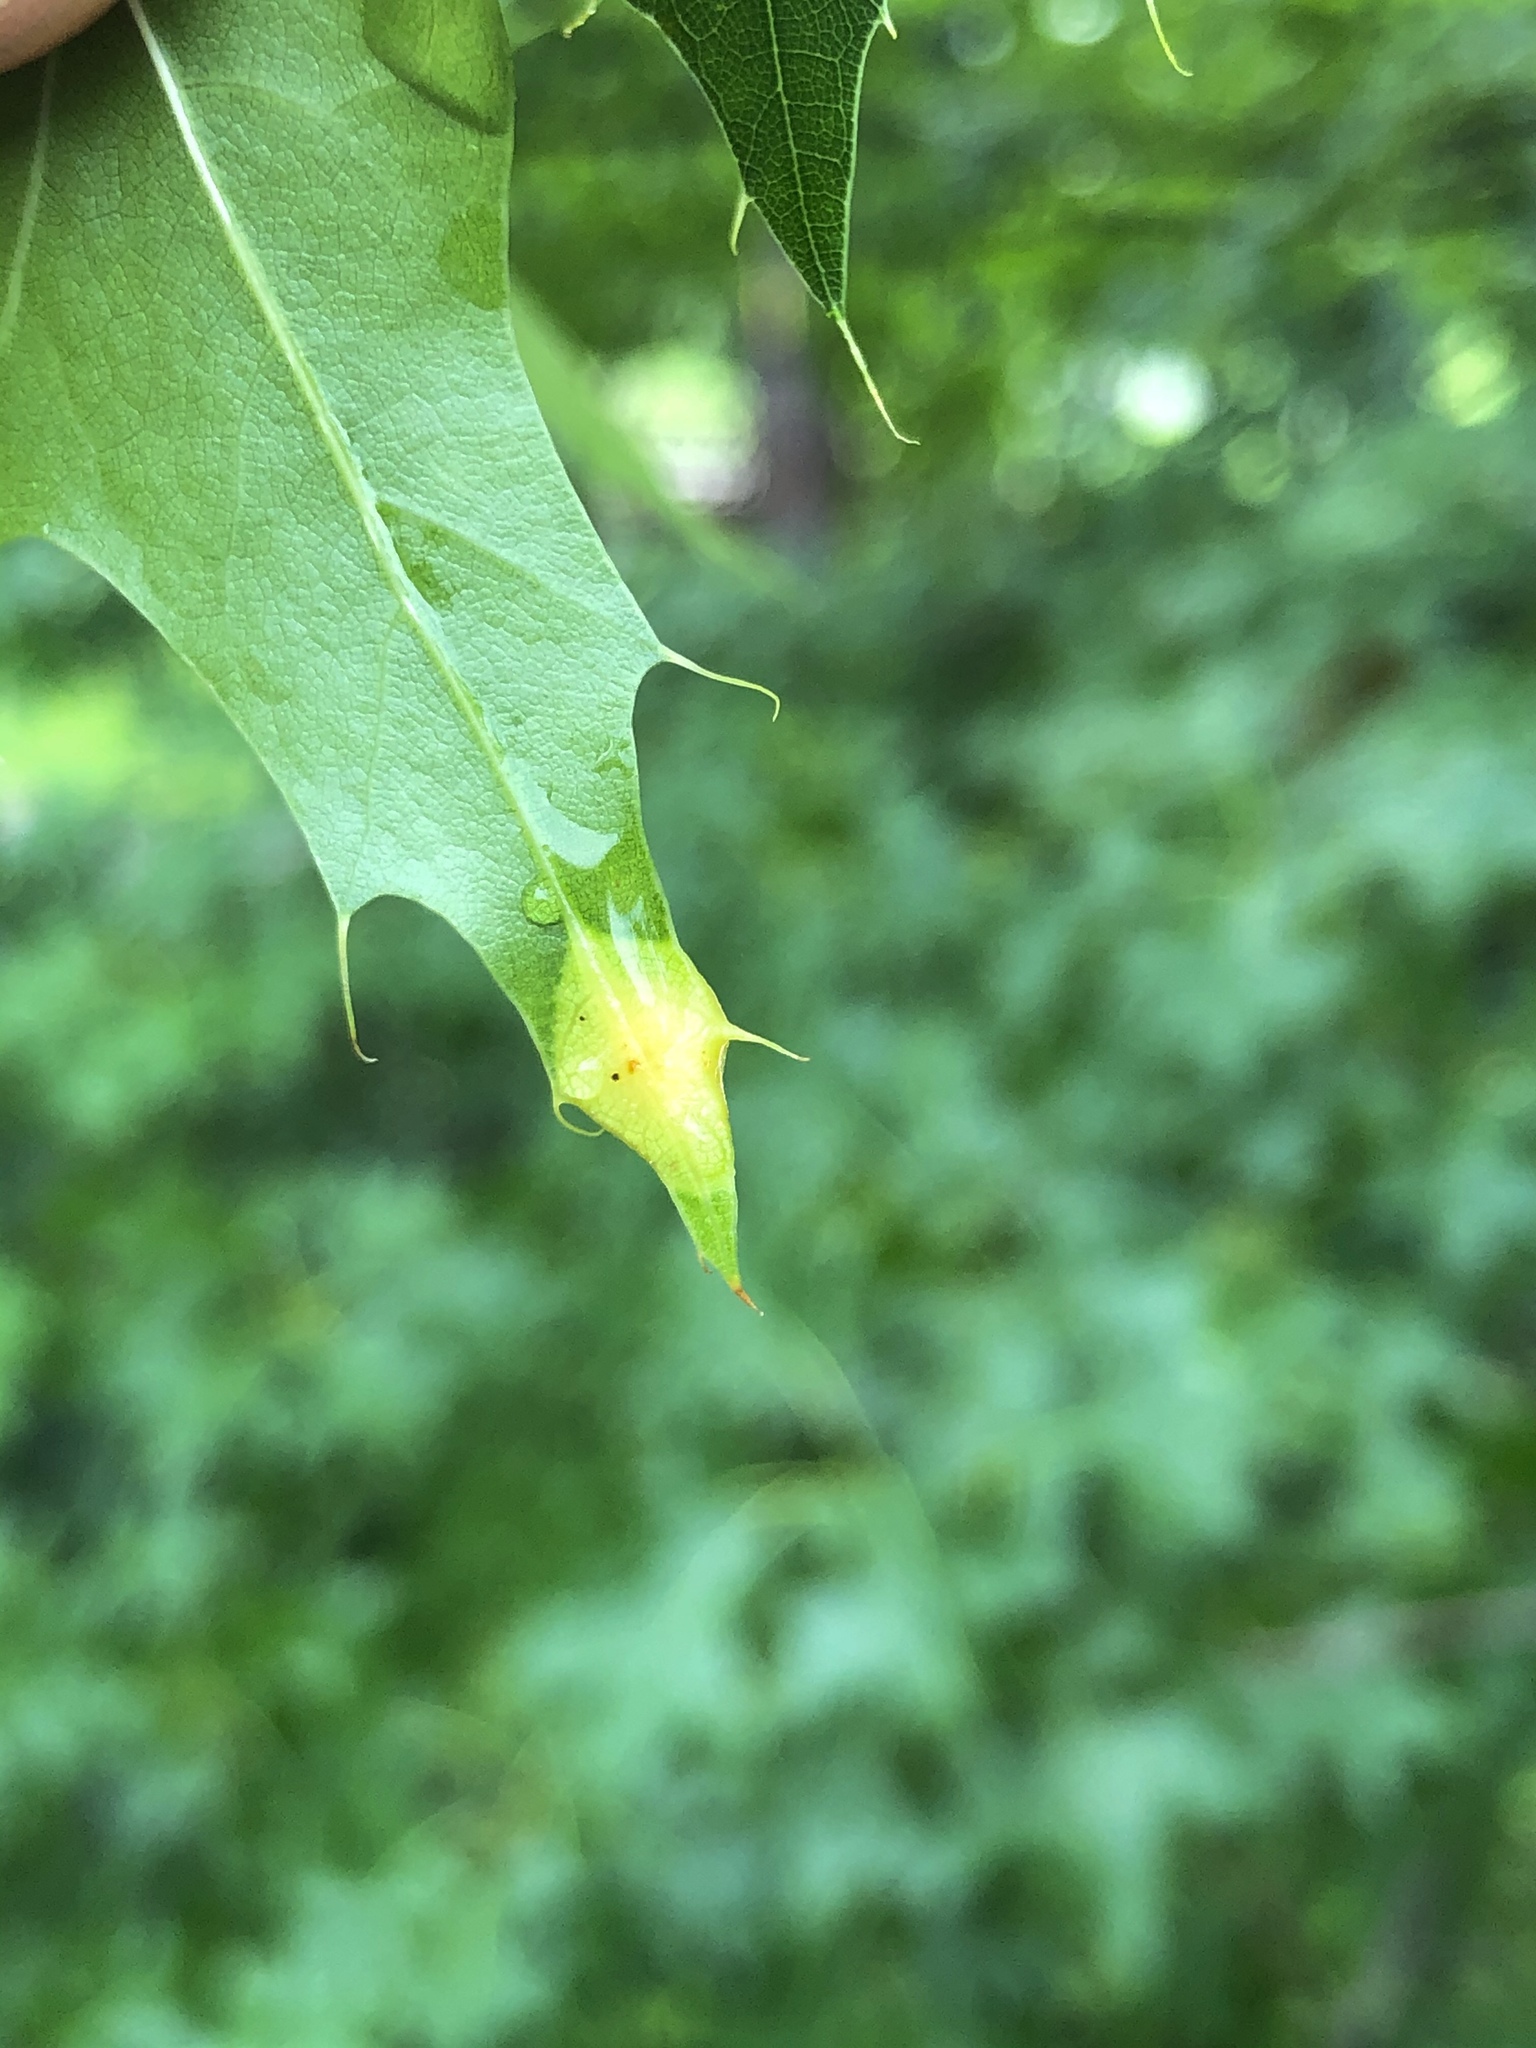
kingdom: Animalia
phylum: Arthropoda
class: Insecta
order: Diptera
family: Cecidomyiidae
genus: Polystepha
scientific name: Polystepha pilulae
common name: Oak leaf gall midge
